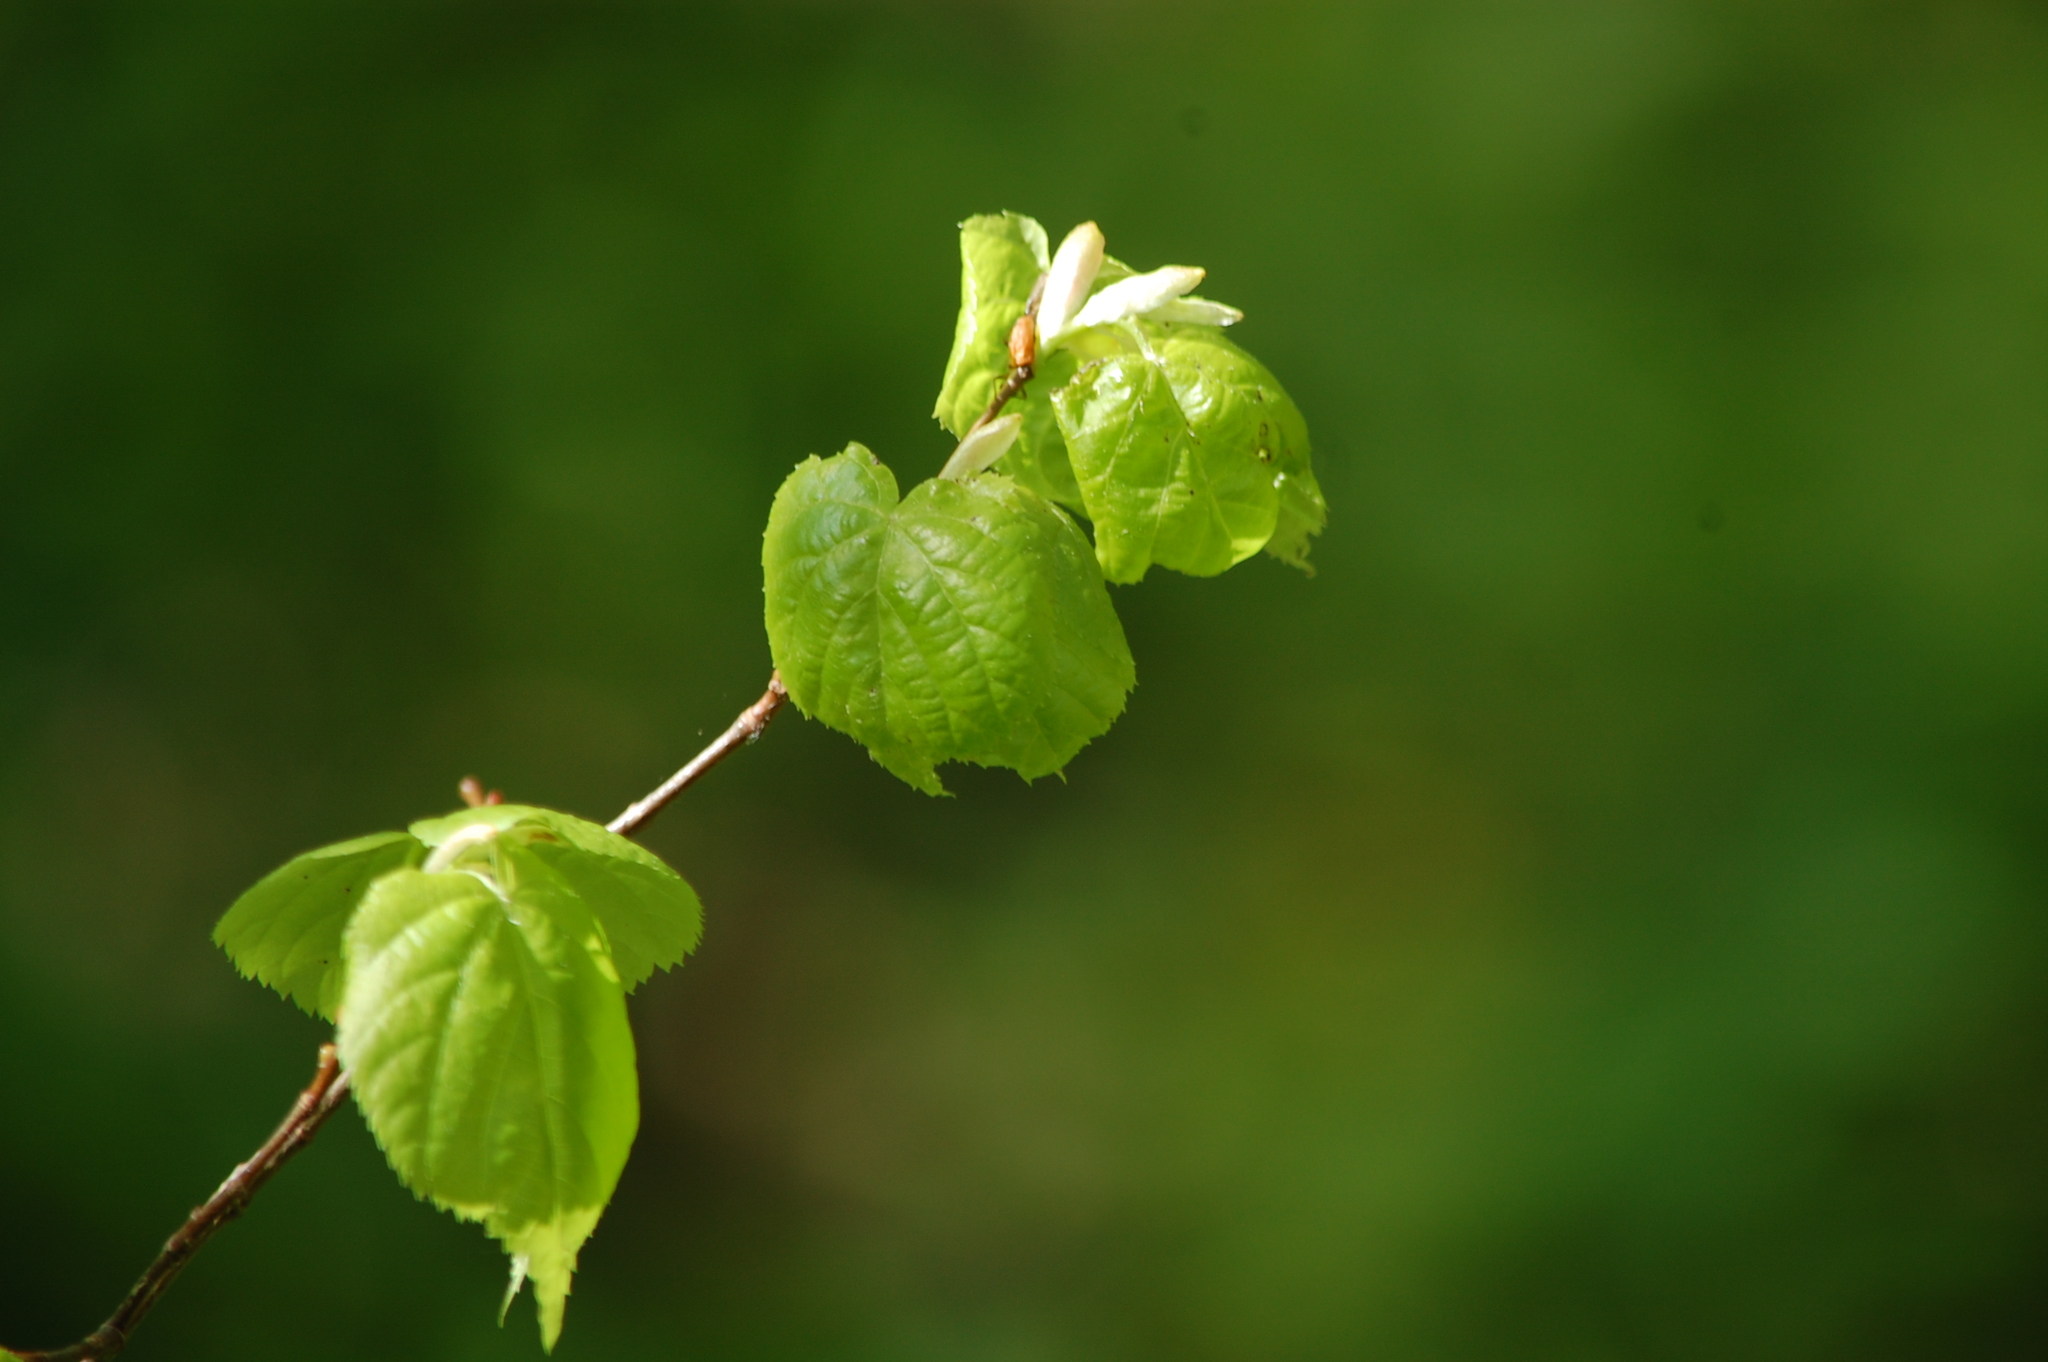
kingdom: Plantae
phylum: Tracheophyta
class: Magnoliopsida
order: Malvales
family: Malvaceae
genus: Tilia
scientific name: Tilia cordata
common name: Small-leaved lime
